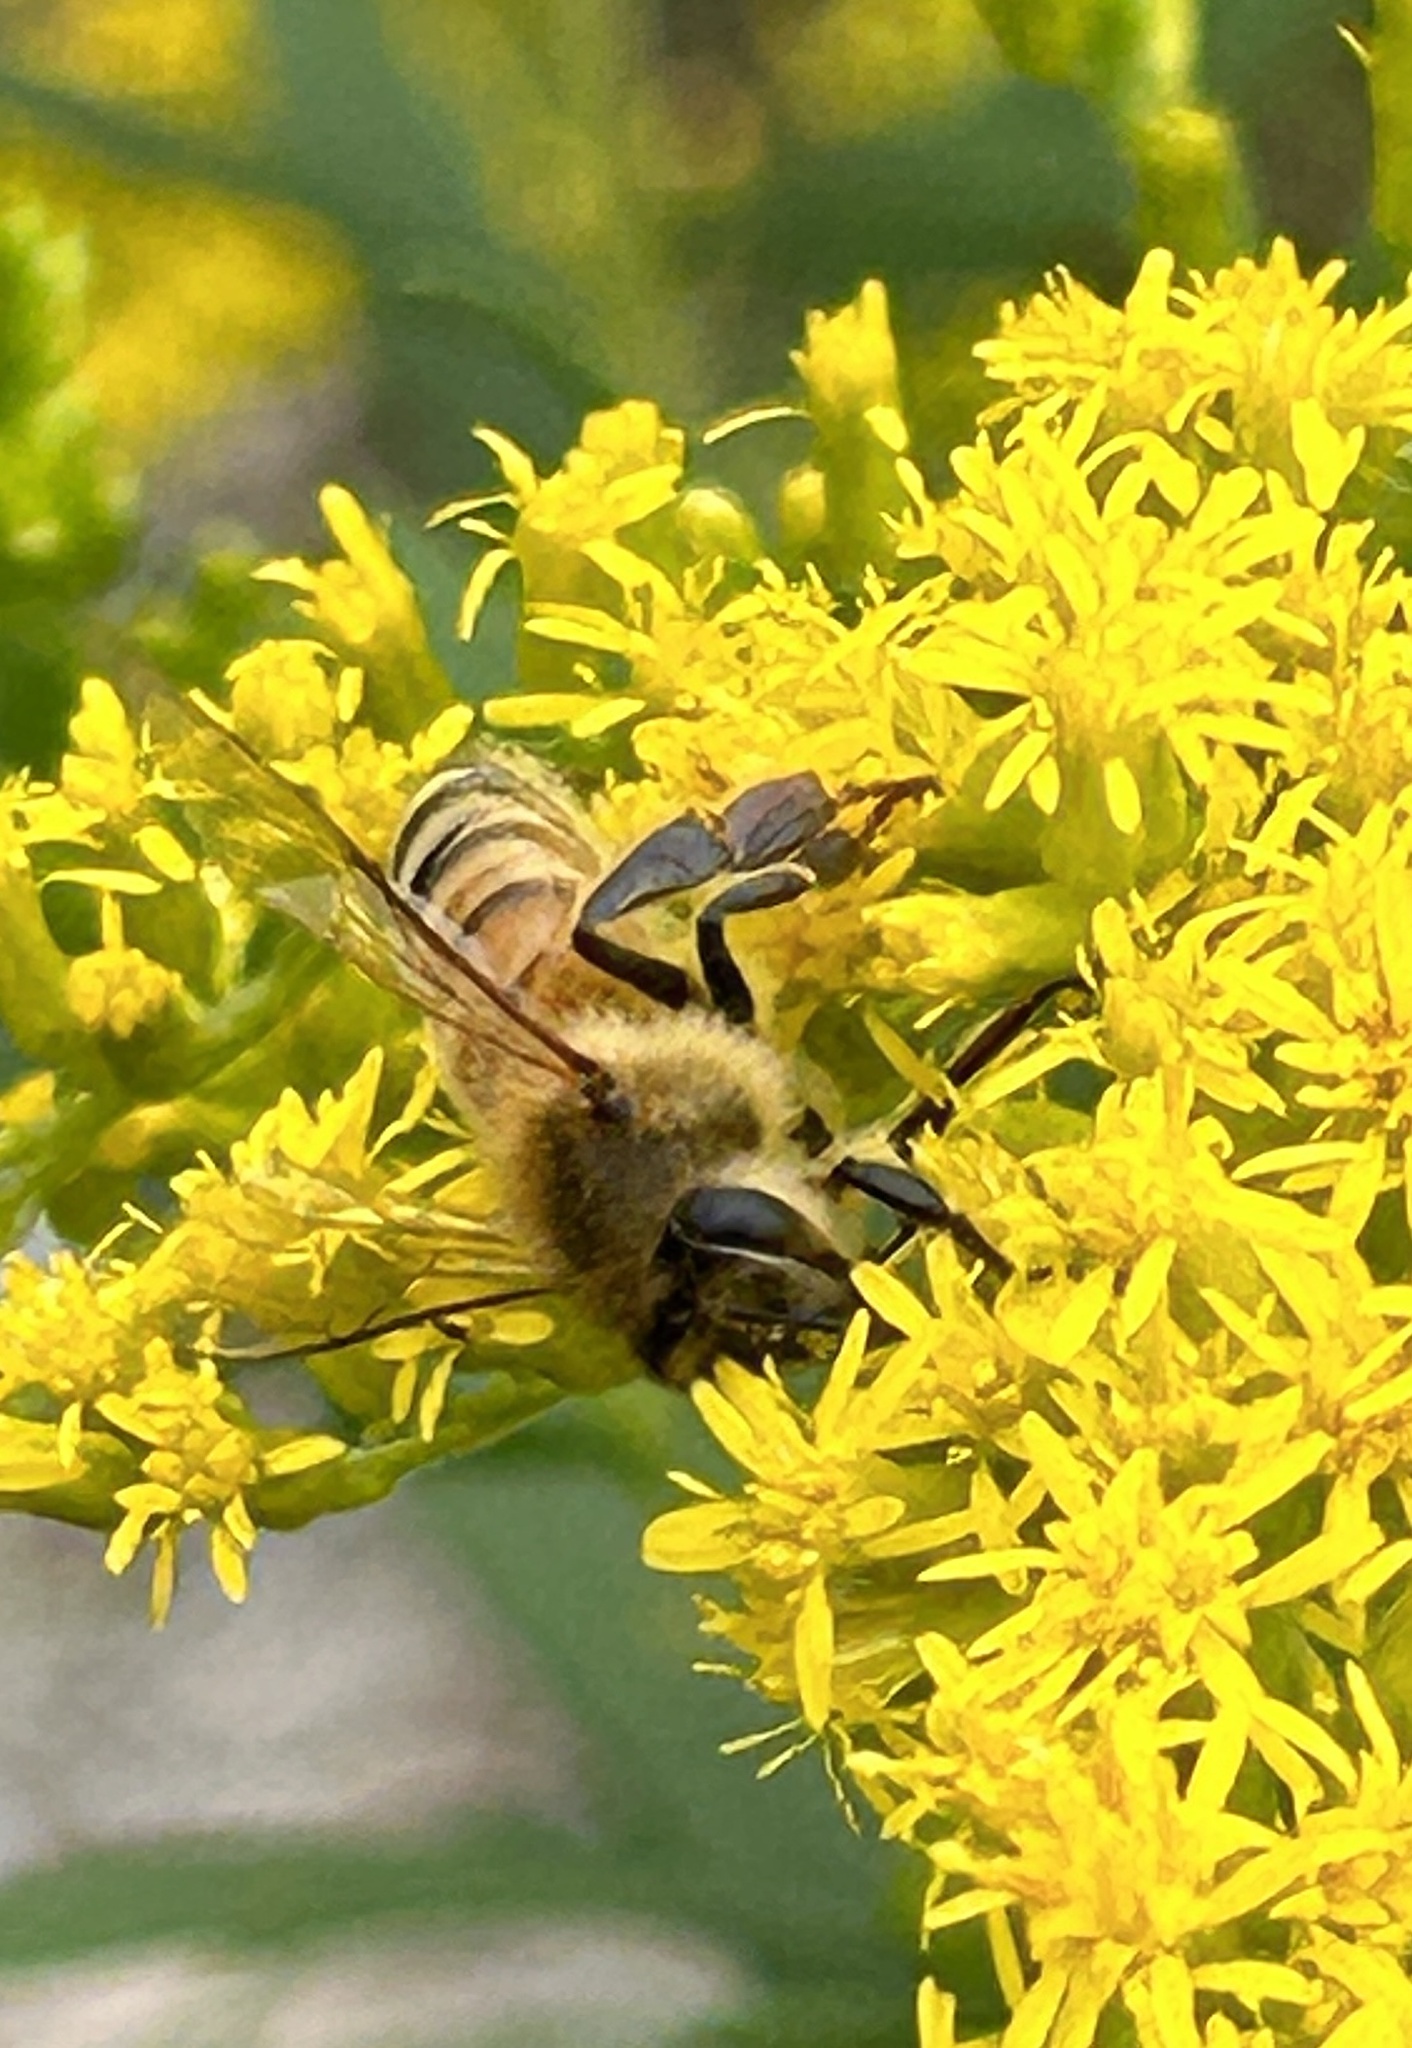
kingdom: Animalia
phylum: Arthropoda
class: Insecta
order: Hymenoptera
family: Apidae
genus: Apis
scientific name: Apis mellifera
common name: Honey bee
